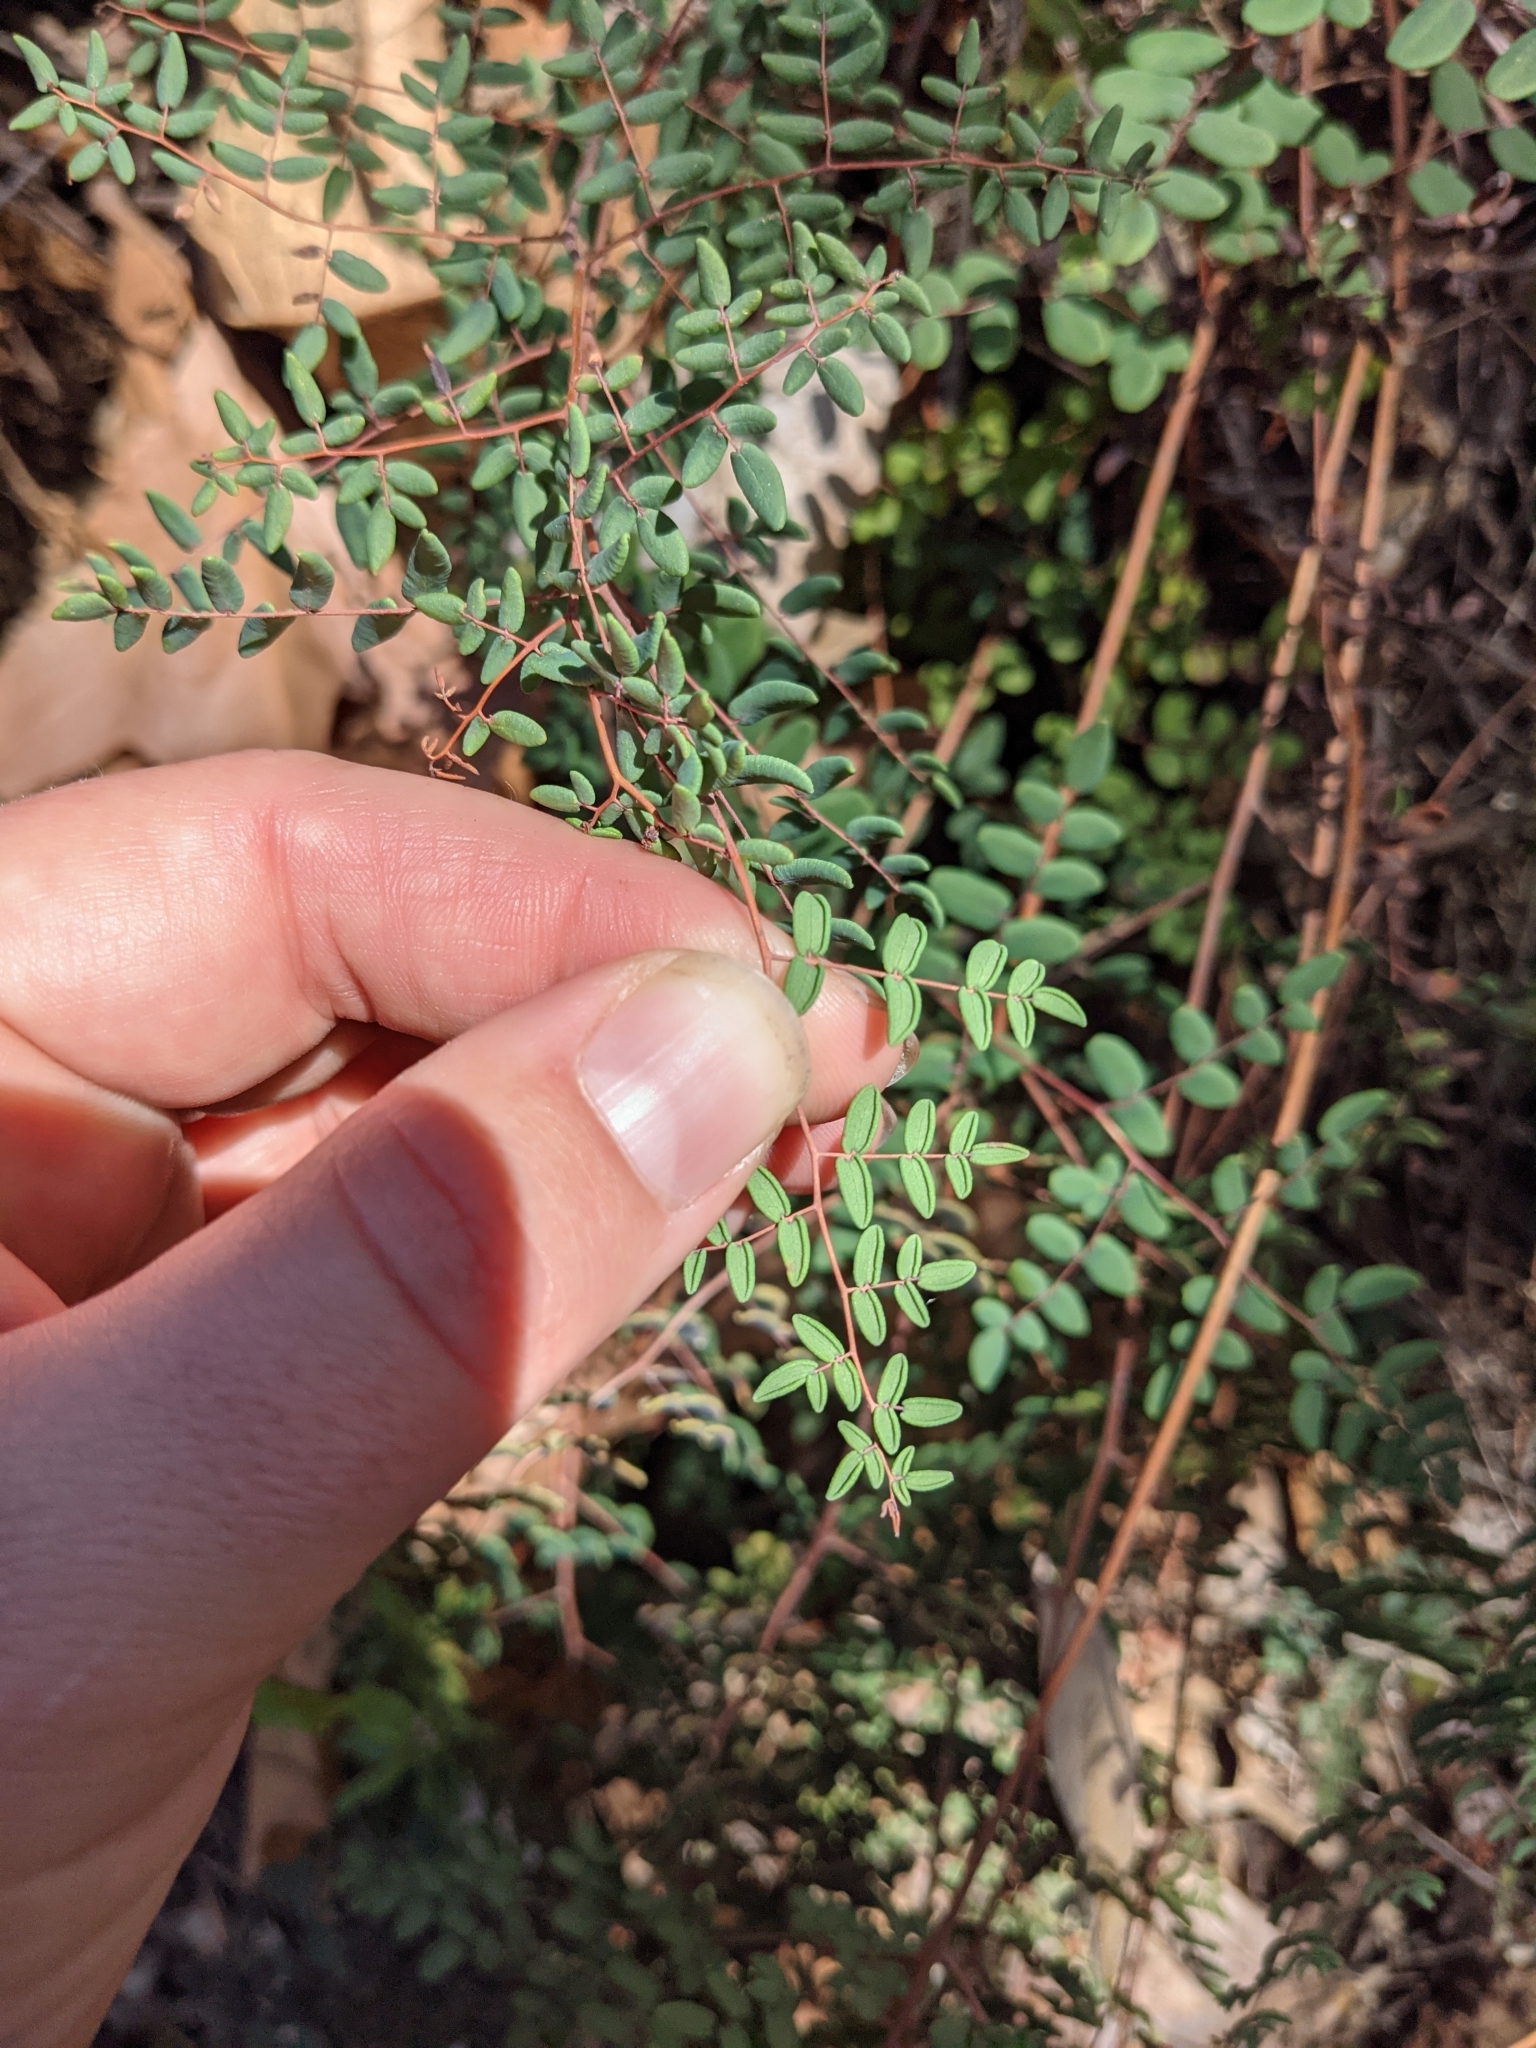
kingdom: Plantae
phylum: Tracheophyta
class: Polypodiopsida
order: Polypodiales
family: Pteridaceae
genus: Pellaea
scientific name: Pellaea andromedifolia
